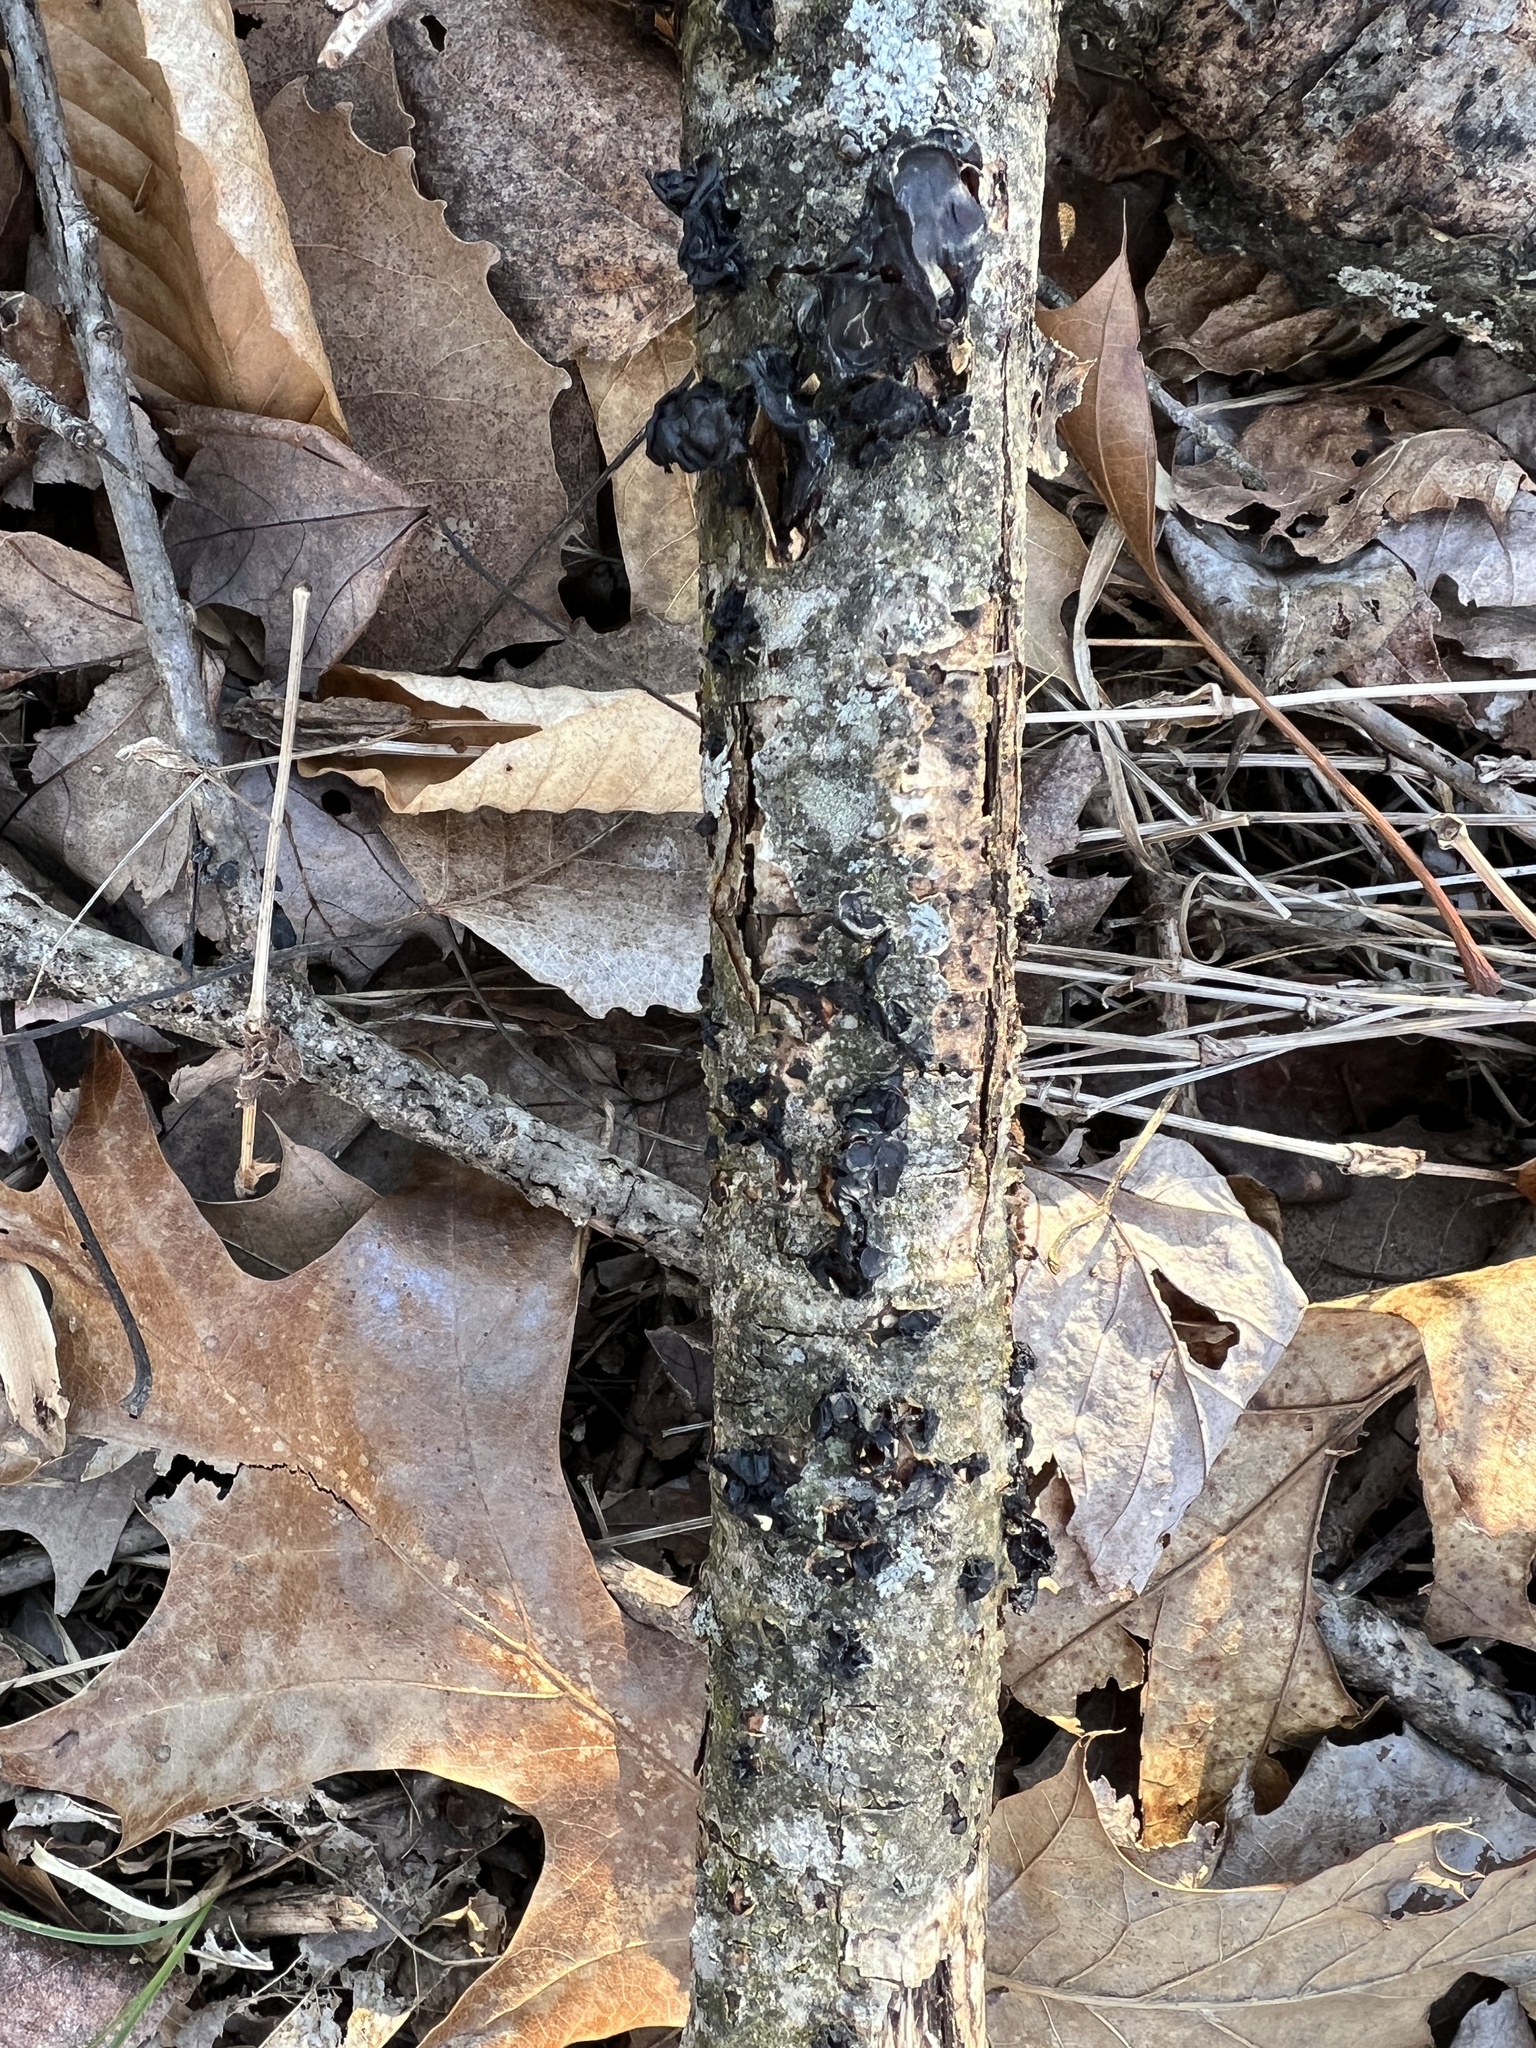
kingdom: Fungi
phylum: Basidiomycota
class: Agaricomycetes
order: Auriculariales
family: Auriculariaceae
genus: Exidia
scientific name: Exidia
